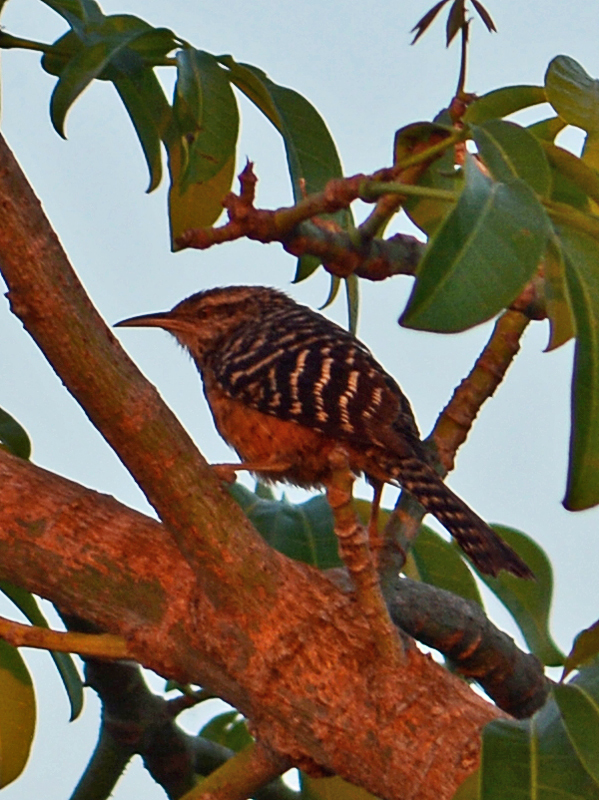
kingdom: Animalia
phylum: Chordata
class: Aves
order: Passeriformes
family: Troglodytidae
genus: Campylorhynchus
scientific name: Campylorhynchus zonatus
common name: Band-backed wren
